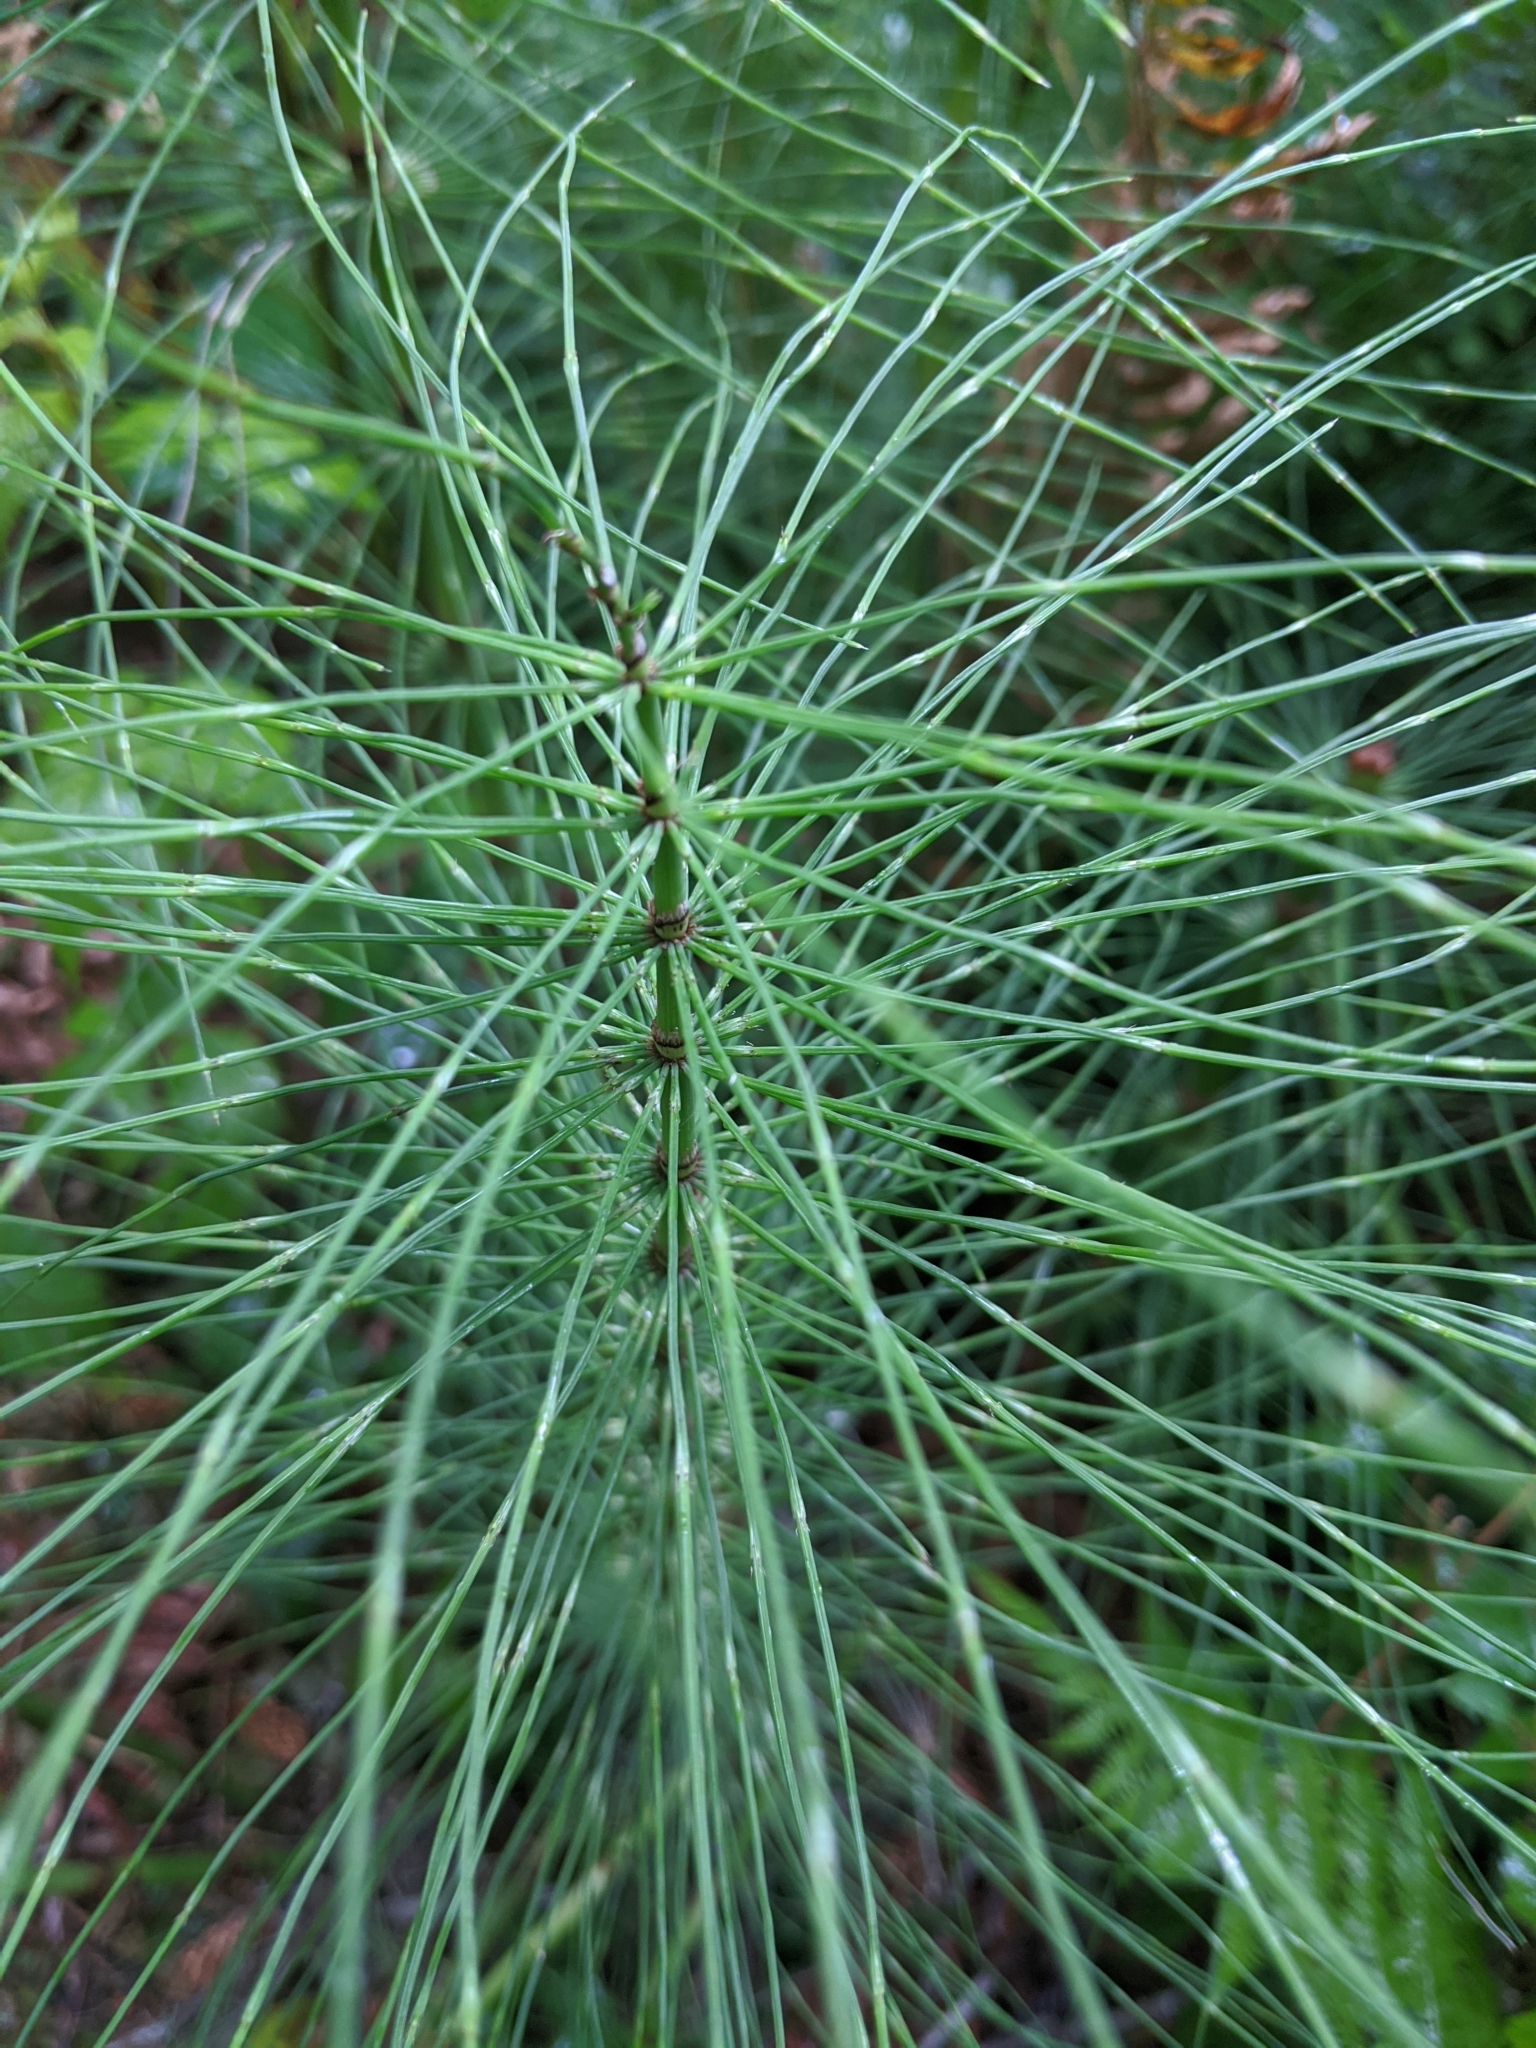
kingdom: Plantae
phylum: Tracheophyta
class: Polypodiopsida
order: Equisetales
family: Equisetaceae
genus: Equisetum
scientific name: Equisetum telmateia
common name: Great horsetail
